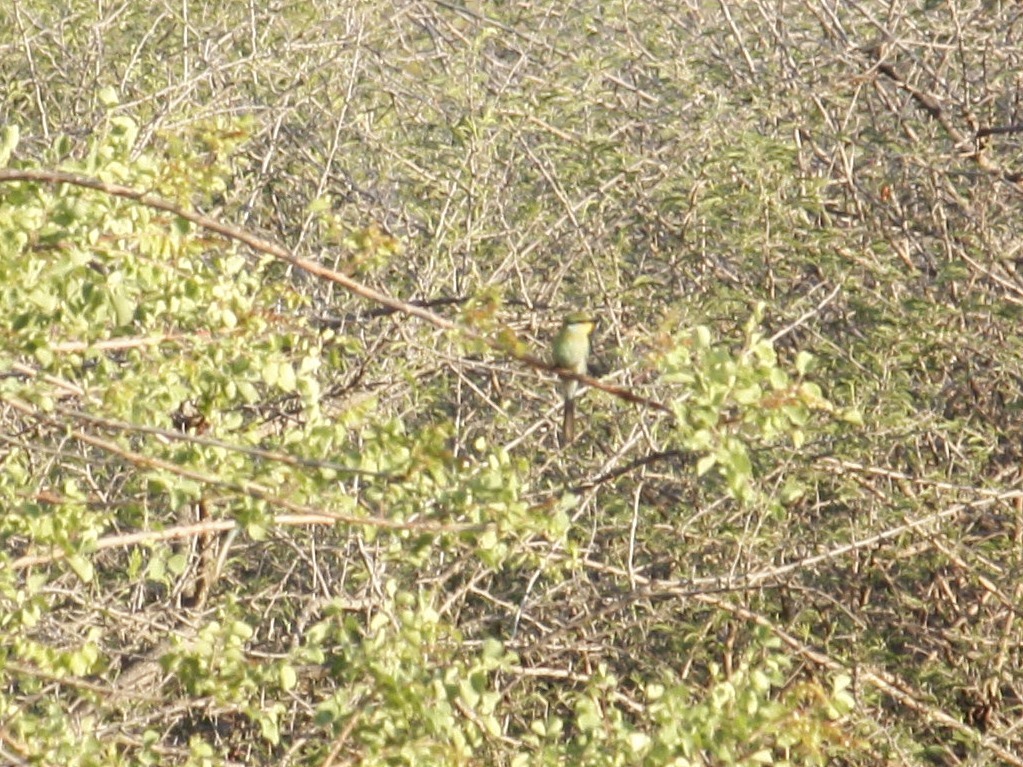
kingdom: Animalia
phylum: Chordata
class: Aves
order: Coraciiformes
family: Meropidae
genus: Merops
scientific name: Merops hirundineus
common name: Swallow-tailed bee-eater
